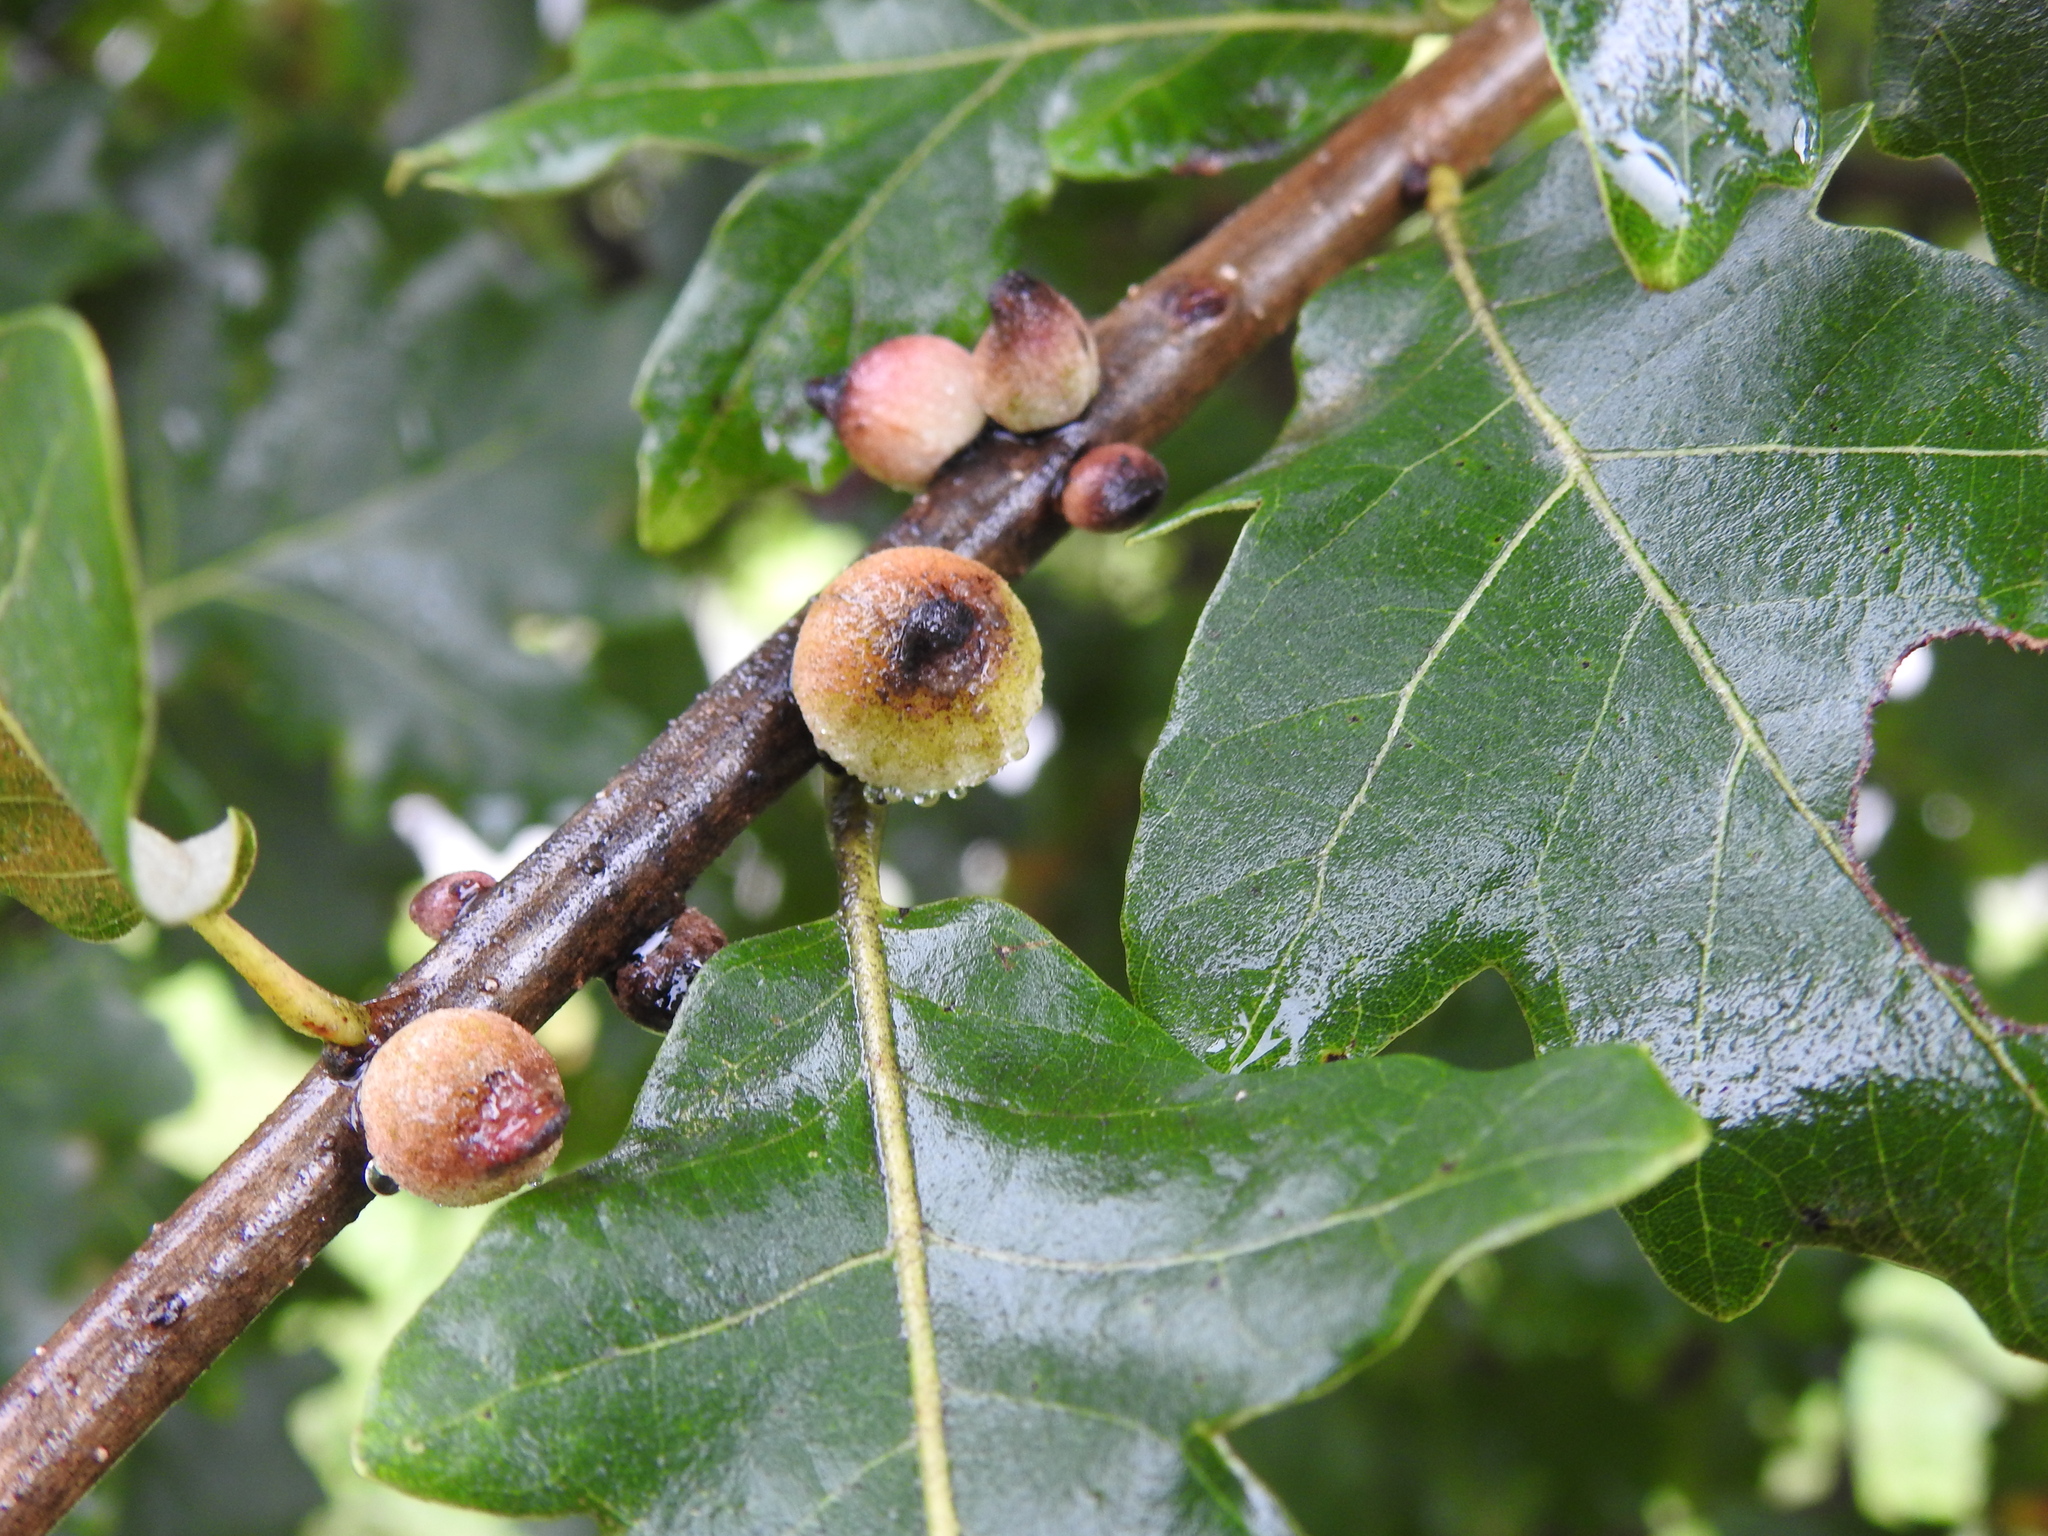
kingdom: Animalia
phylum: Arthropoda
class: Insecta
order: Hymenoptera
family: Cynipidae
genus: Disholcaspis
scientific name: Disholcaspis
